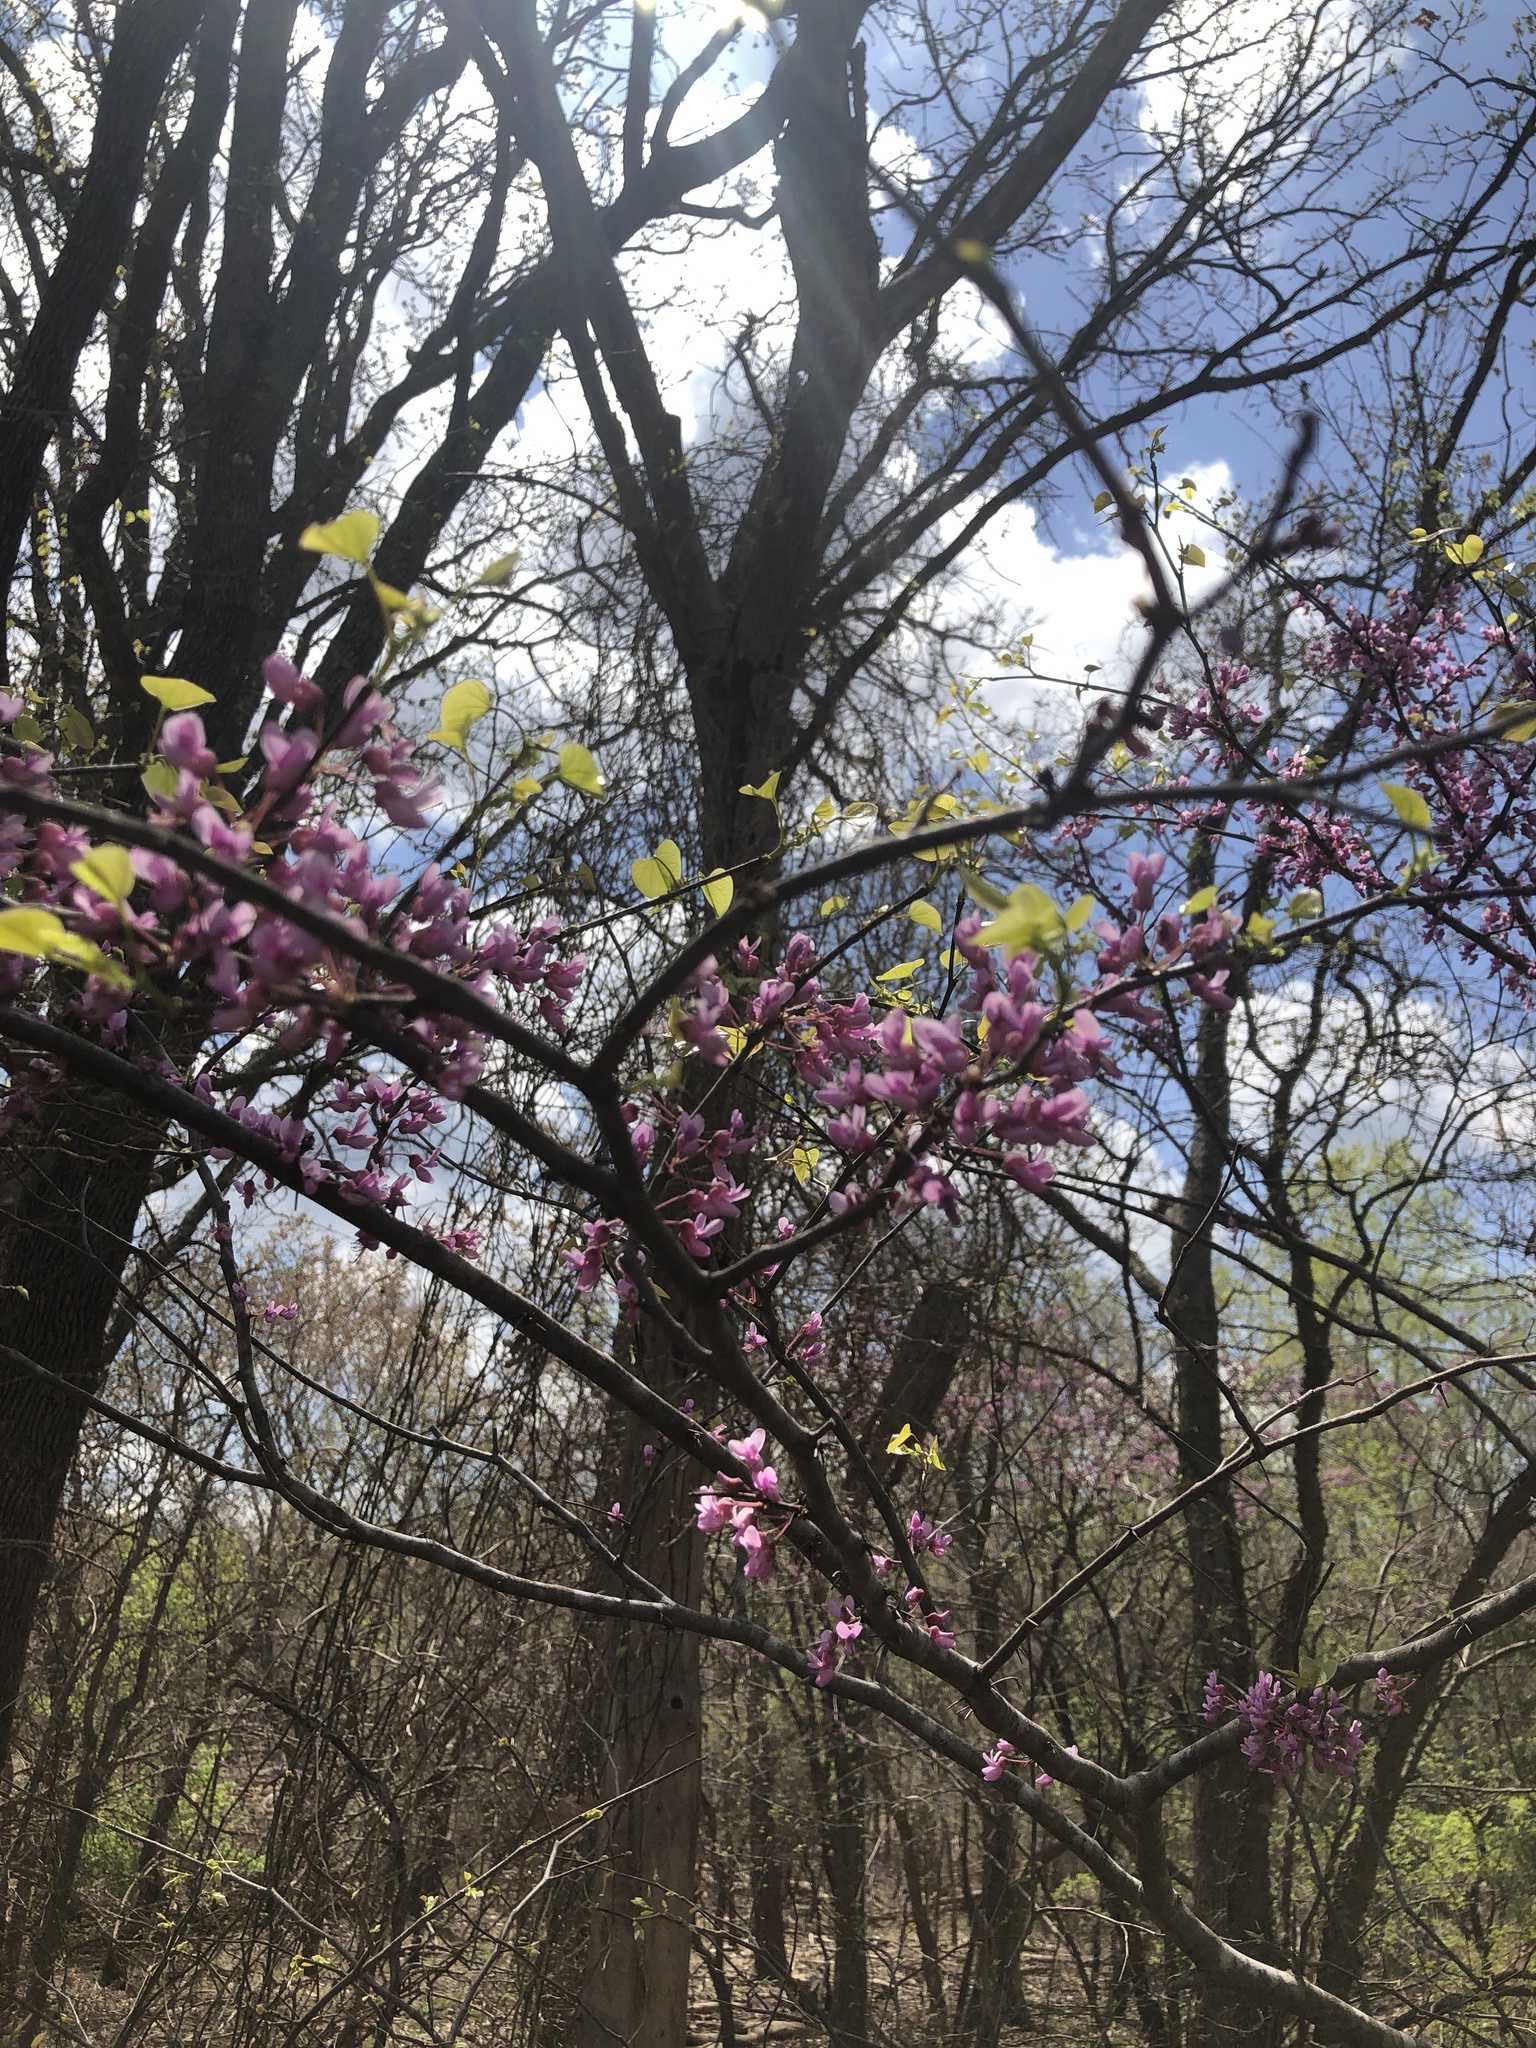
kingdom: Plantae
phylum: Tracheophyta
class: Magnoliopsida
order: Fabales
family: Fabaceae
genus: Cercis
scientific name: Cercis canadensis
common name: Eastern redbud
